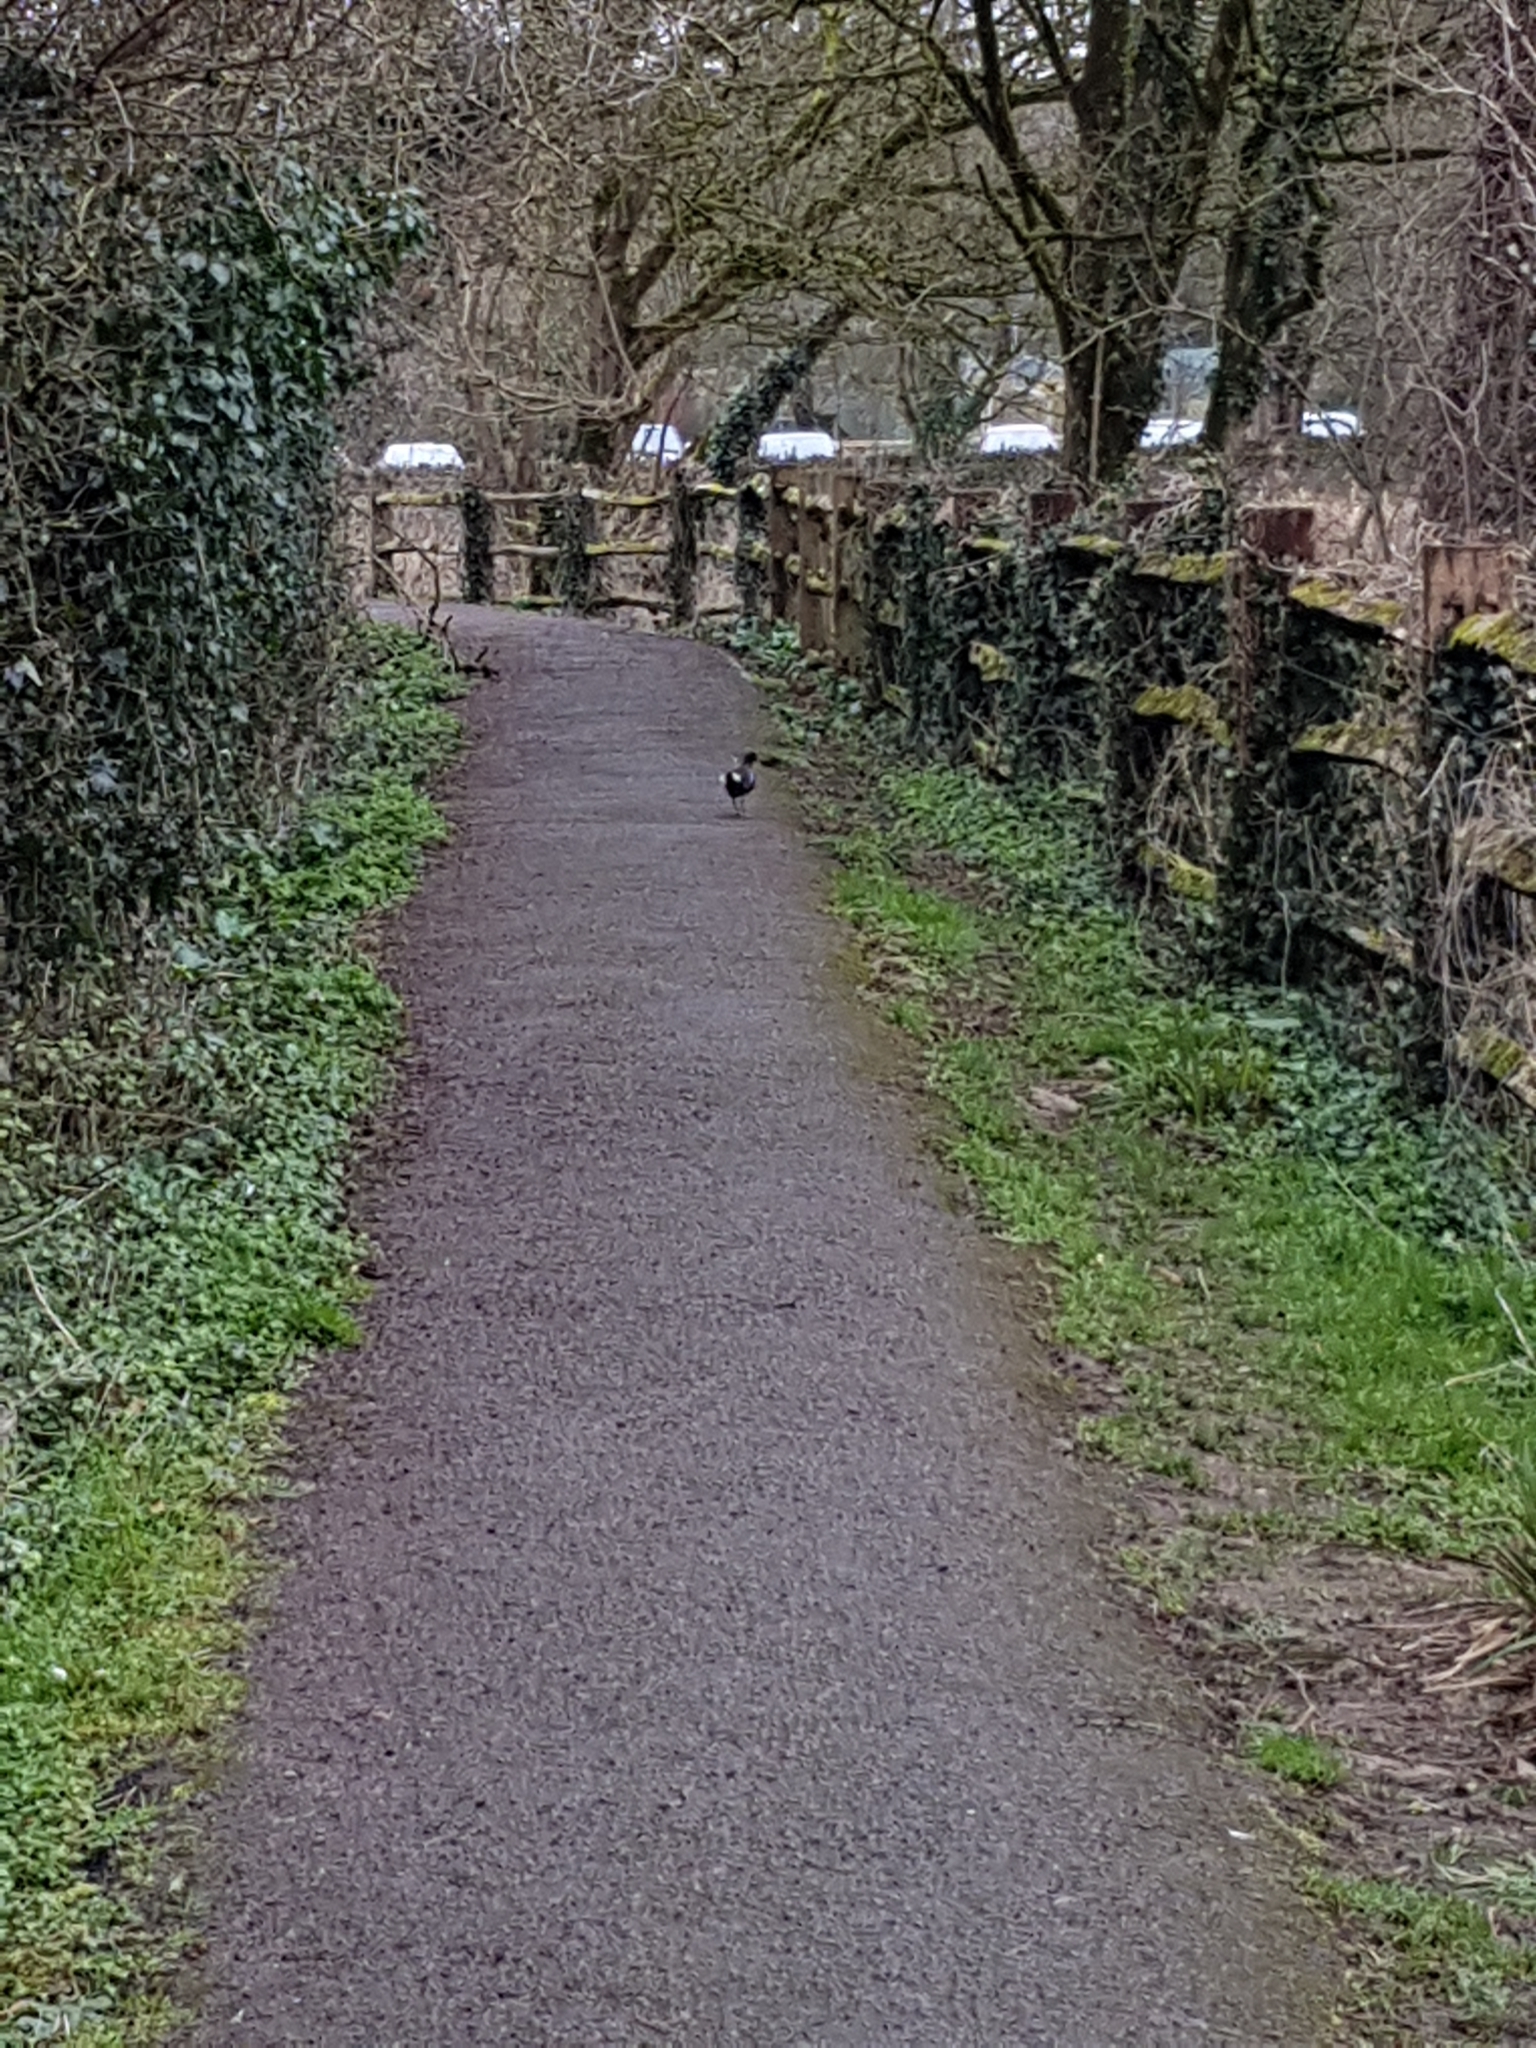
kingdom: Animalia
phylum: Chordata
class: Aves
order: Gruiformes
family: Rallidae
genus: Gallinula
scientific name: Gallinula chloropus
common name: Common moorhen
